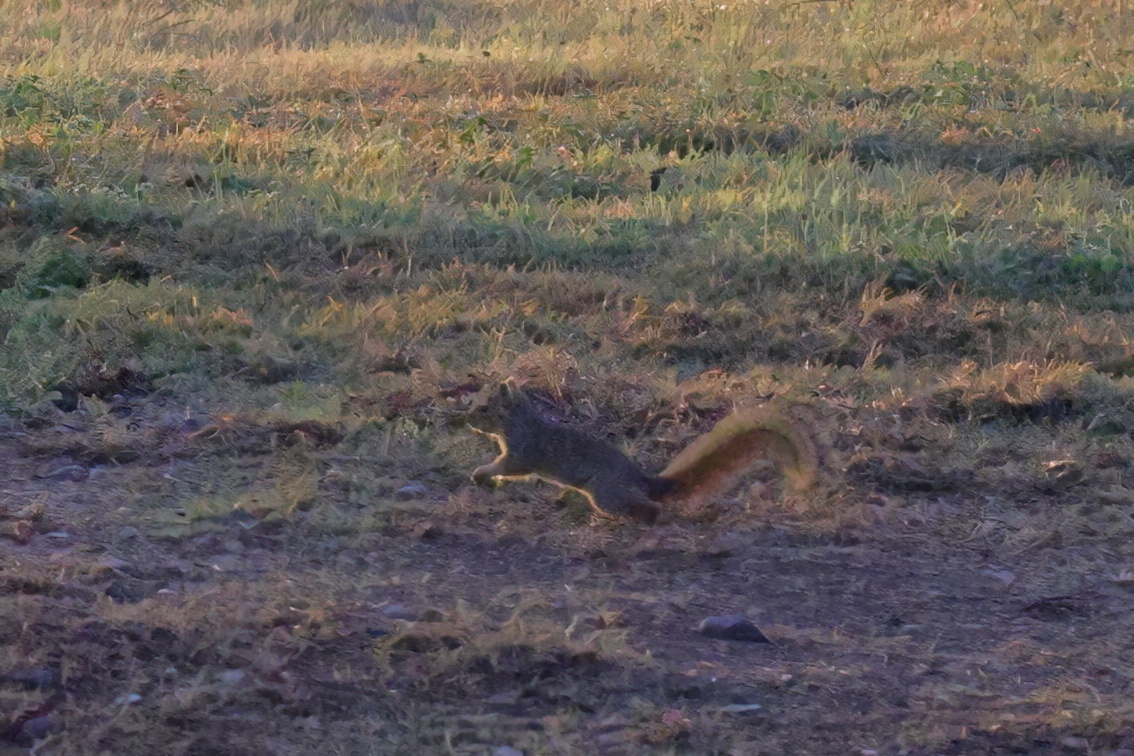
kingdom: Animalia
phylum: Chordata
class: Mammalia
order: Rodentia
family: Sciuridae
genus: Sciurus
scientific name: Sciurus niger
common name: Fox squirrel
